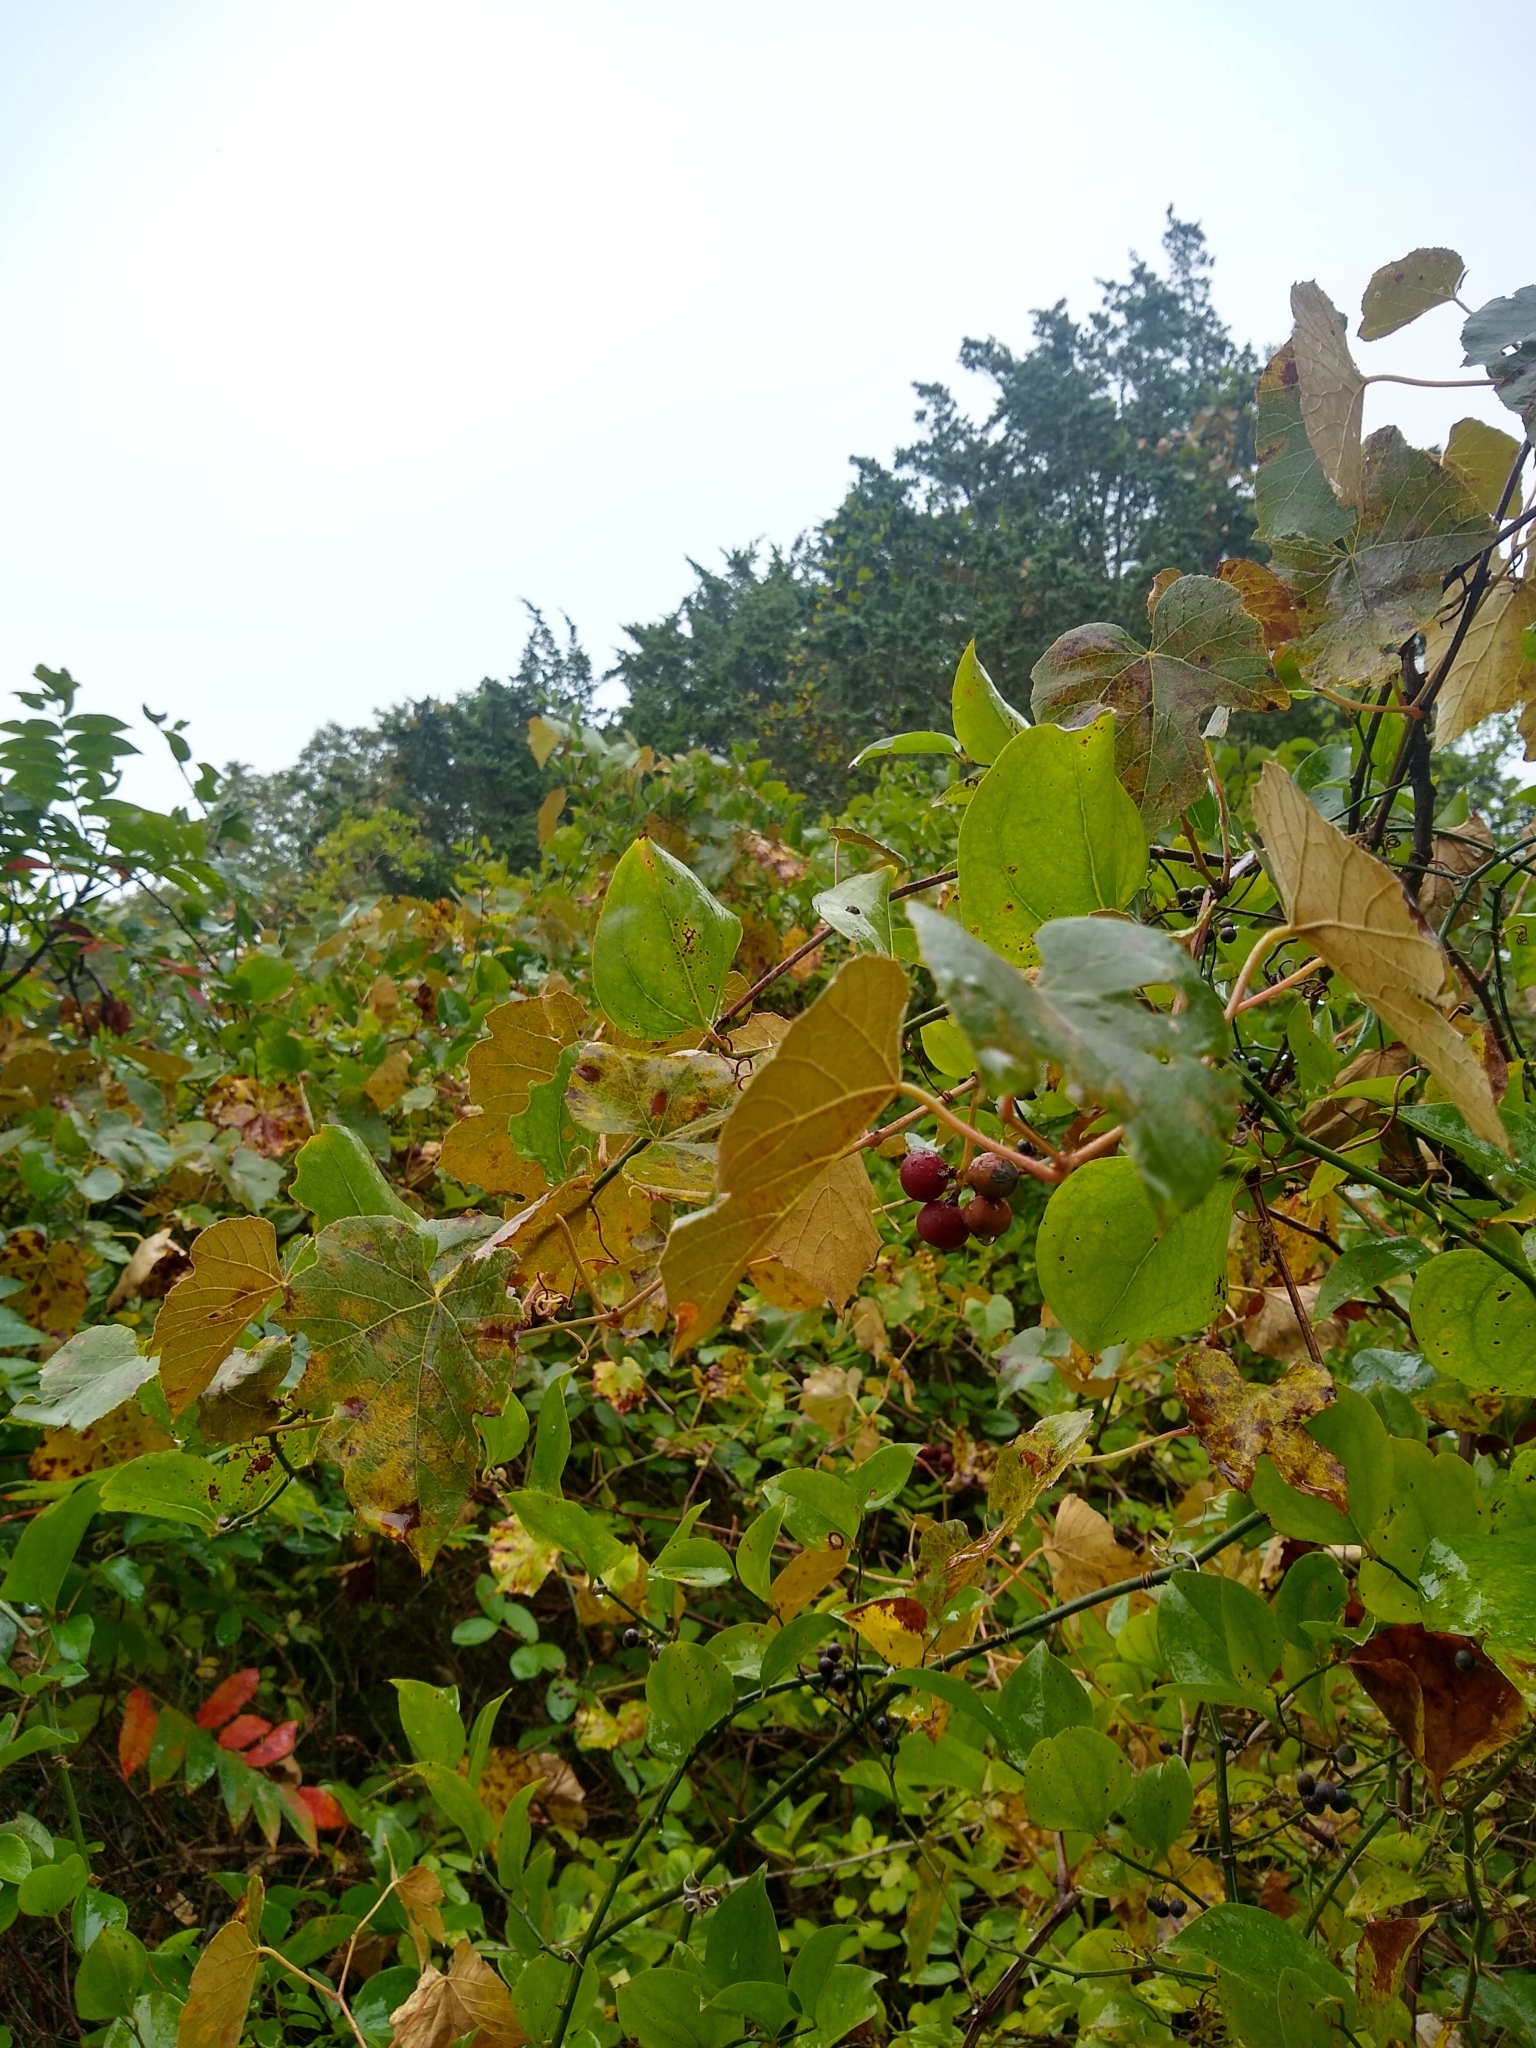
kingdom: Plantae
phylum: Tracheophyta
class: Liliopsida
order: Liliales
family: Smilacaceae
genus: Smilax
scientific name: Smilax rotundifolia
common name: Bullbriar
